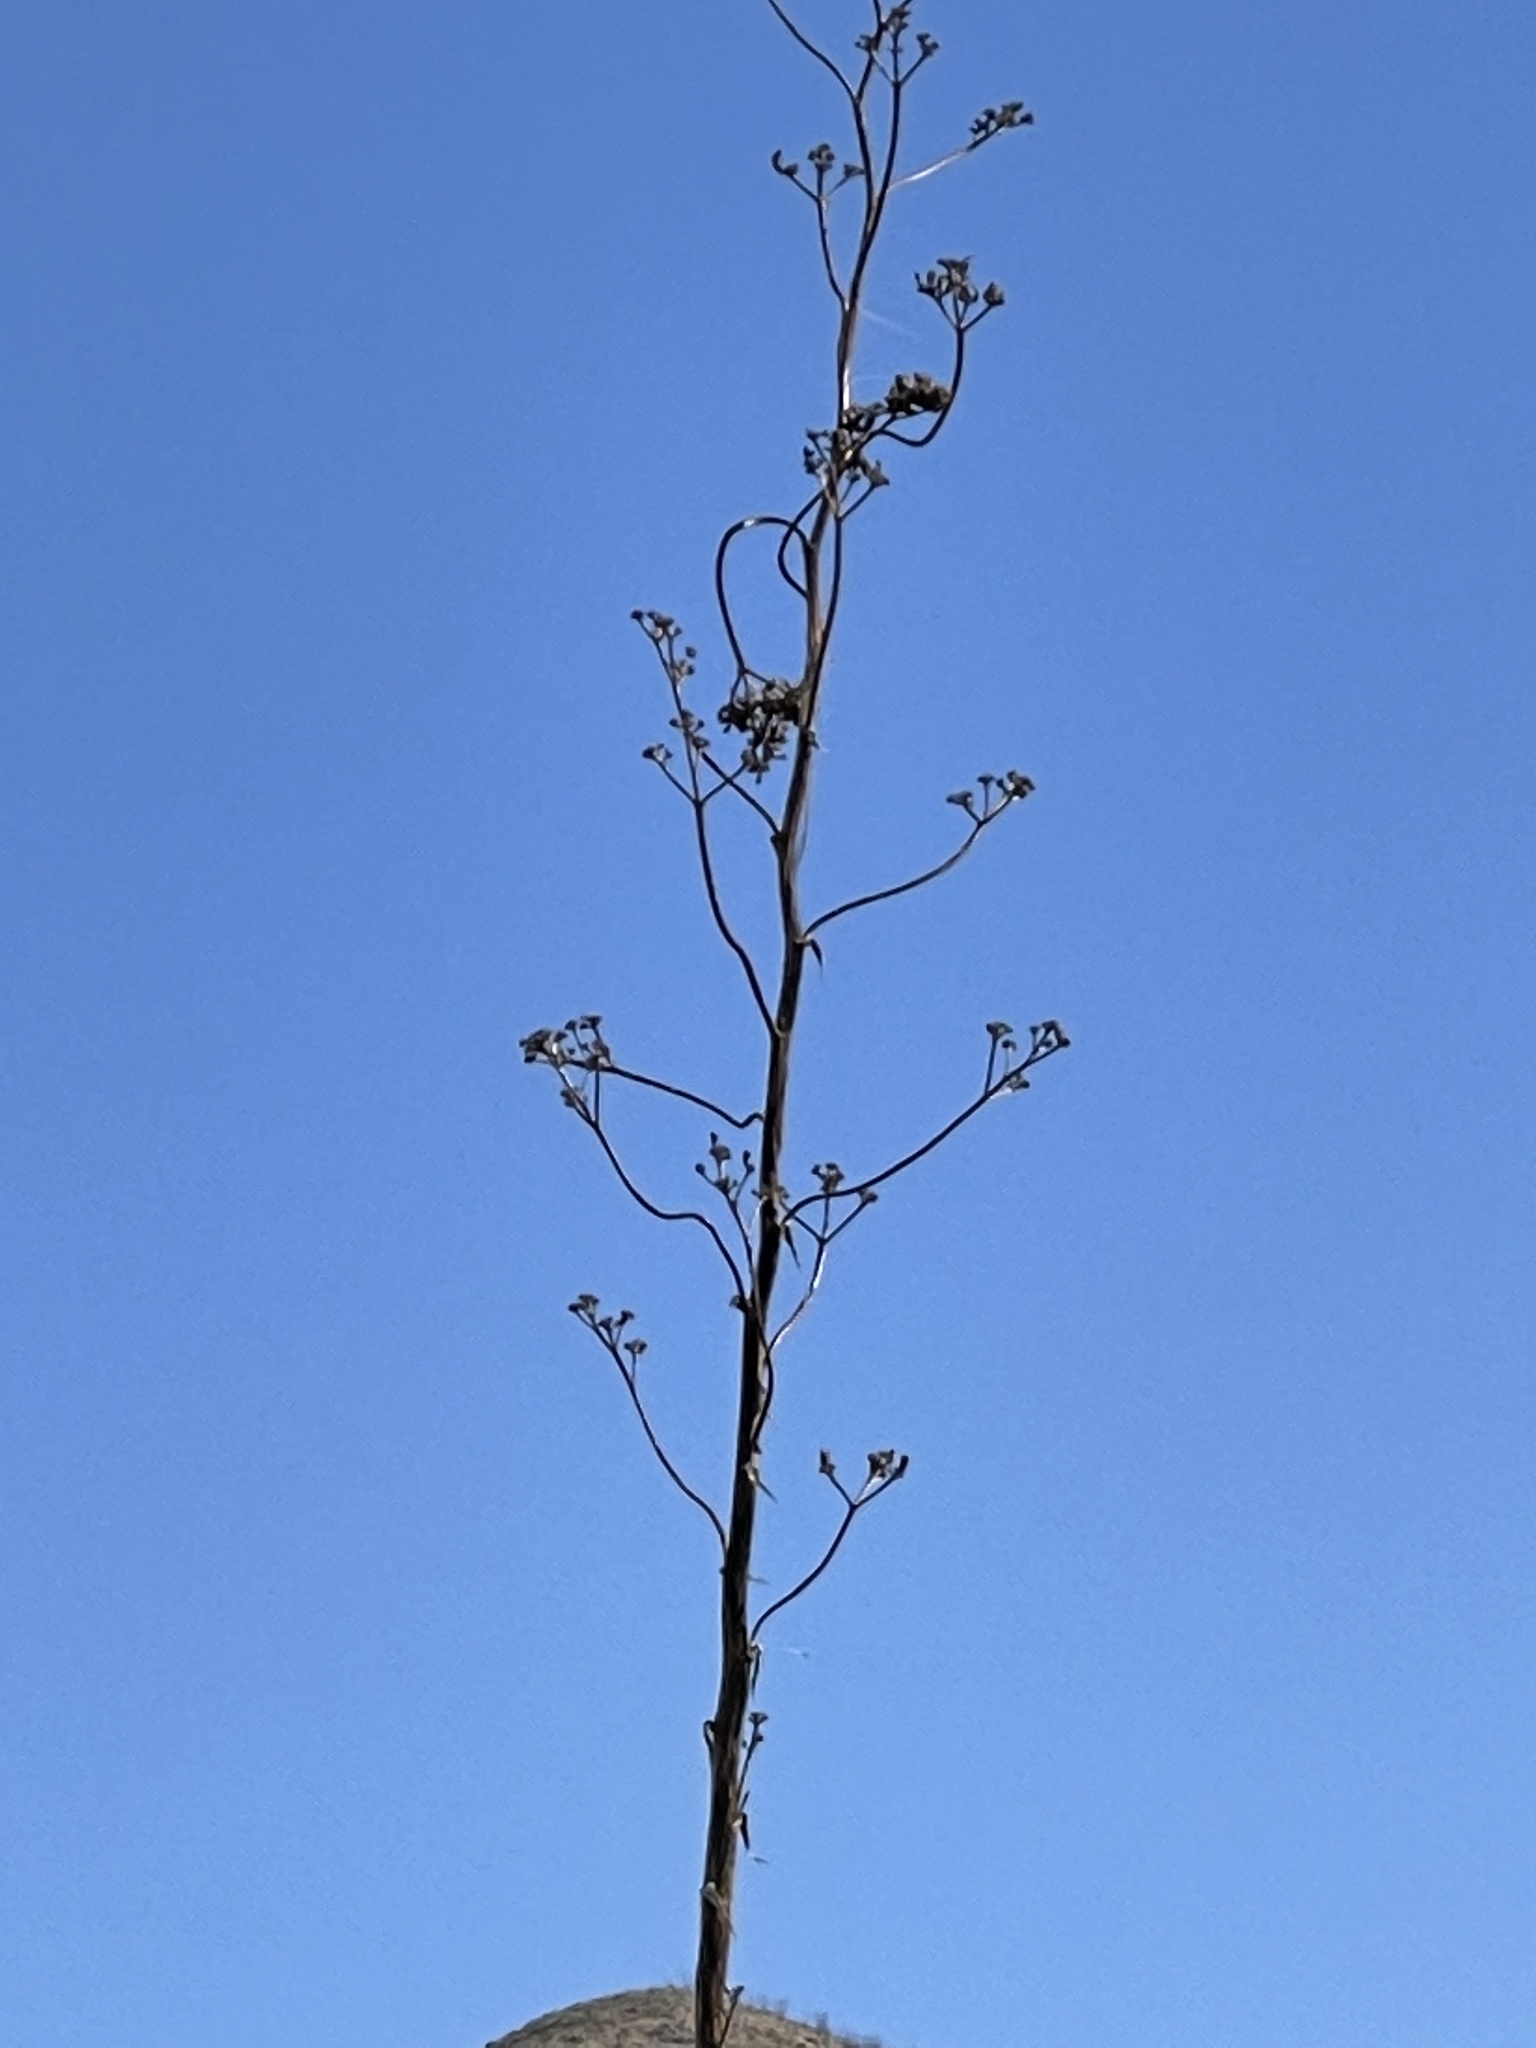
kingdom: Plantae
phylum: Tracheophyta
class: Liliopsida
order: Asparagales
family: Asparagaceae
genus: Agave
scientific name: Agave palmeri
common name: Palmer agave
